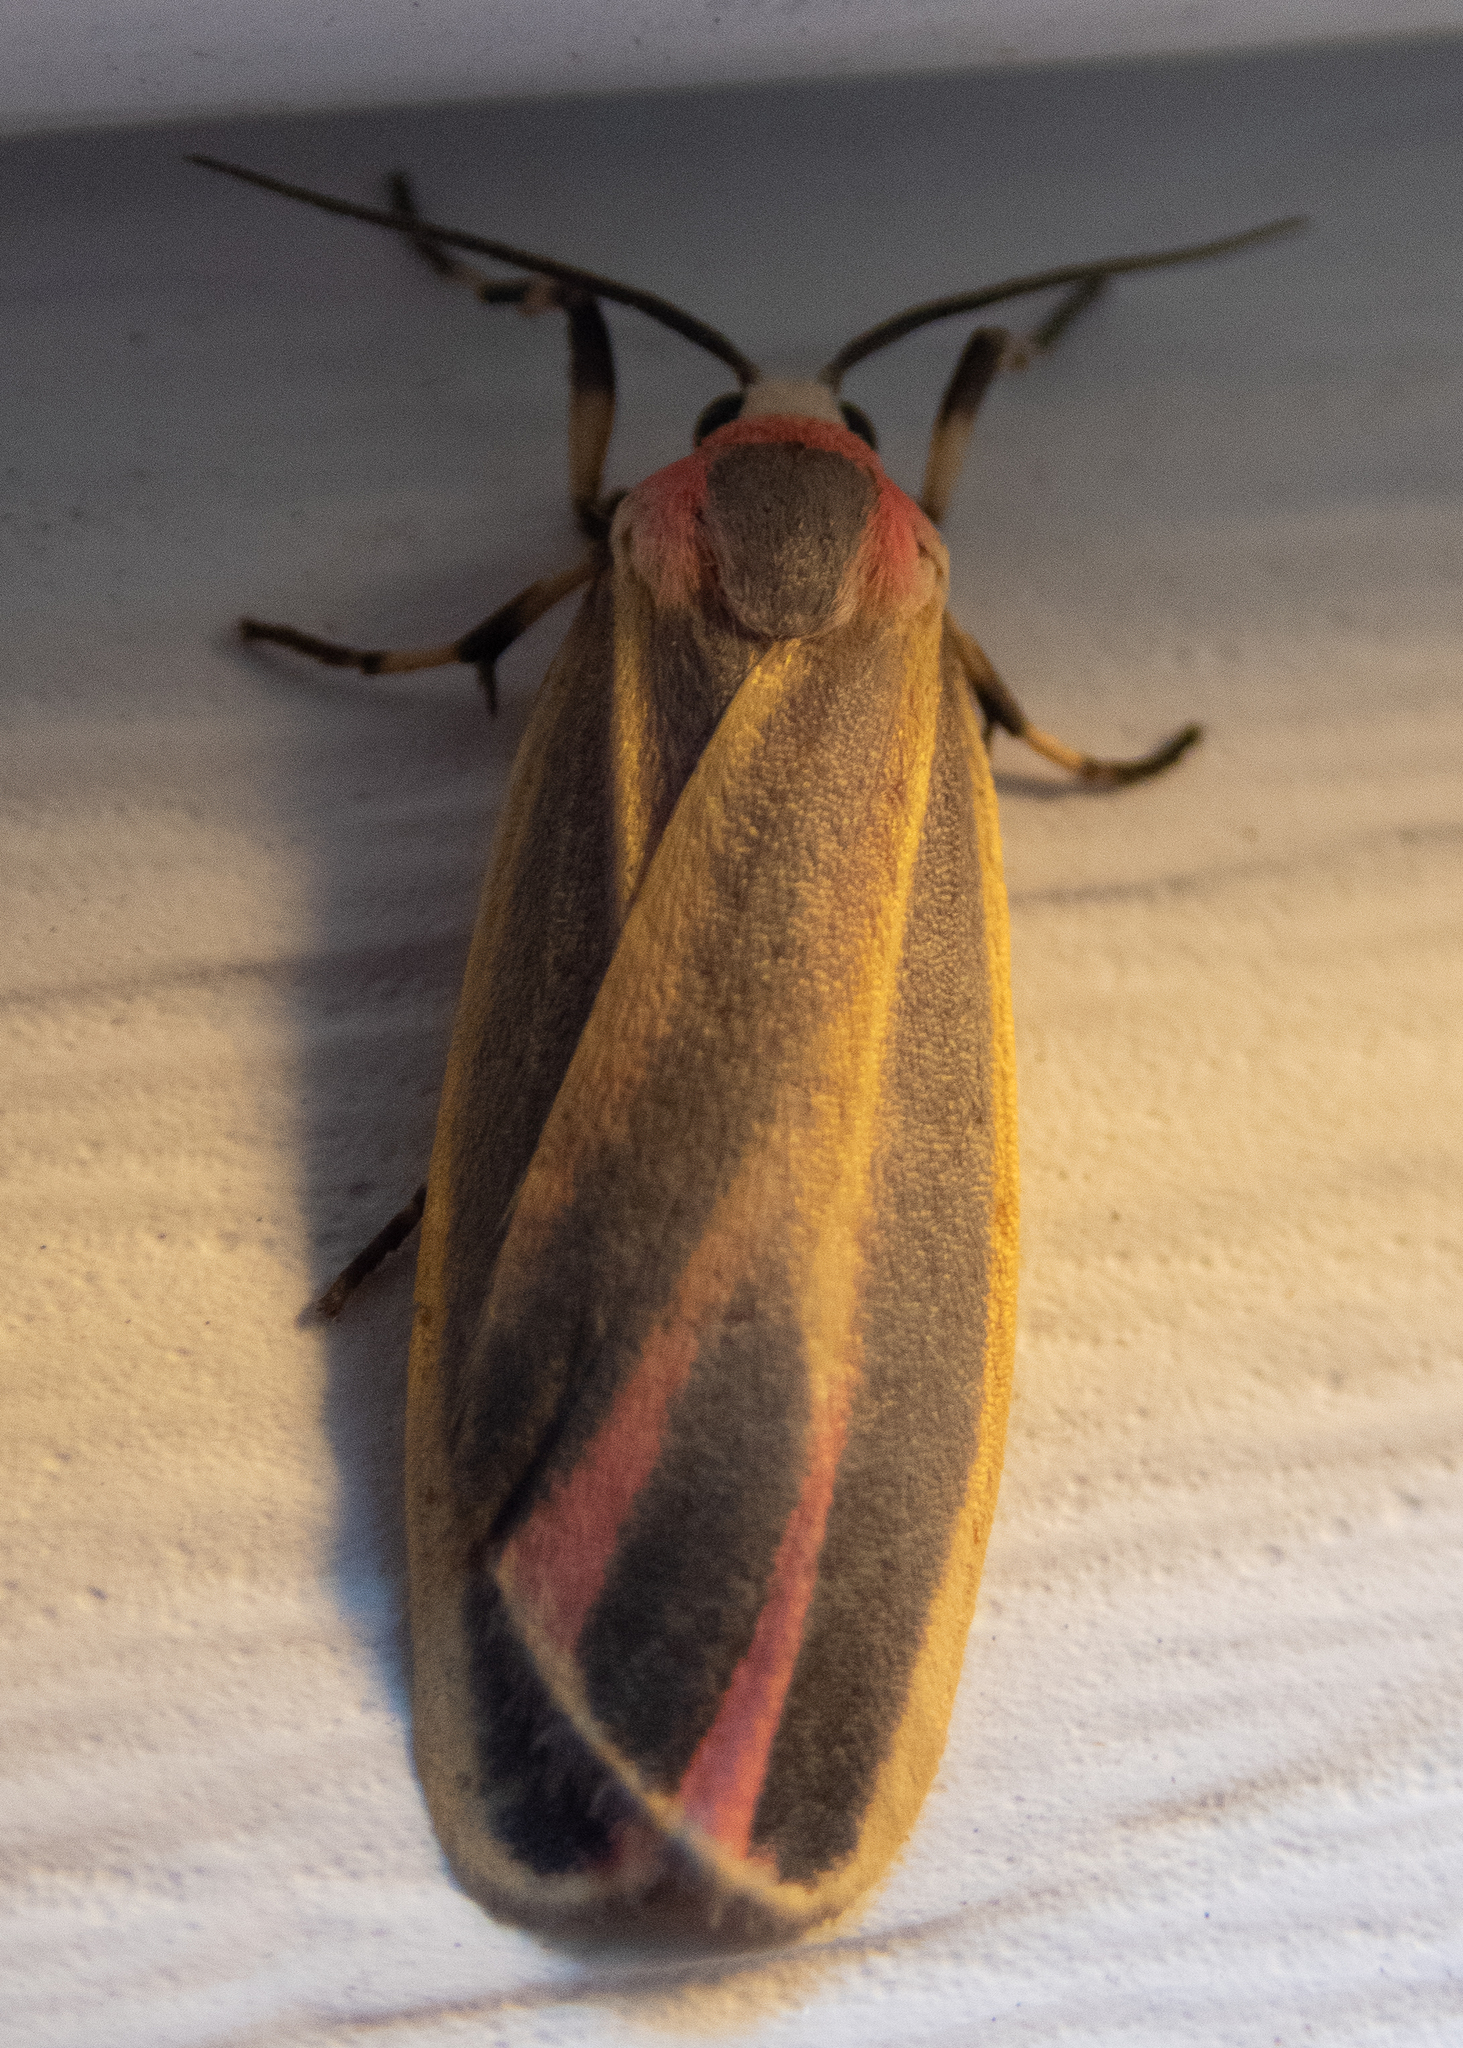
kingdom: Animalia
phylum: Arthropoda
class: Insecta
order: Lepidoptera
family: Erebidae
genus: Hypoprepia
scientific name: Hypoprepia fucosa
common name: Painted lichen moth
